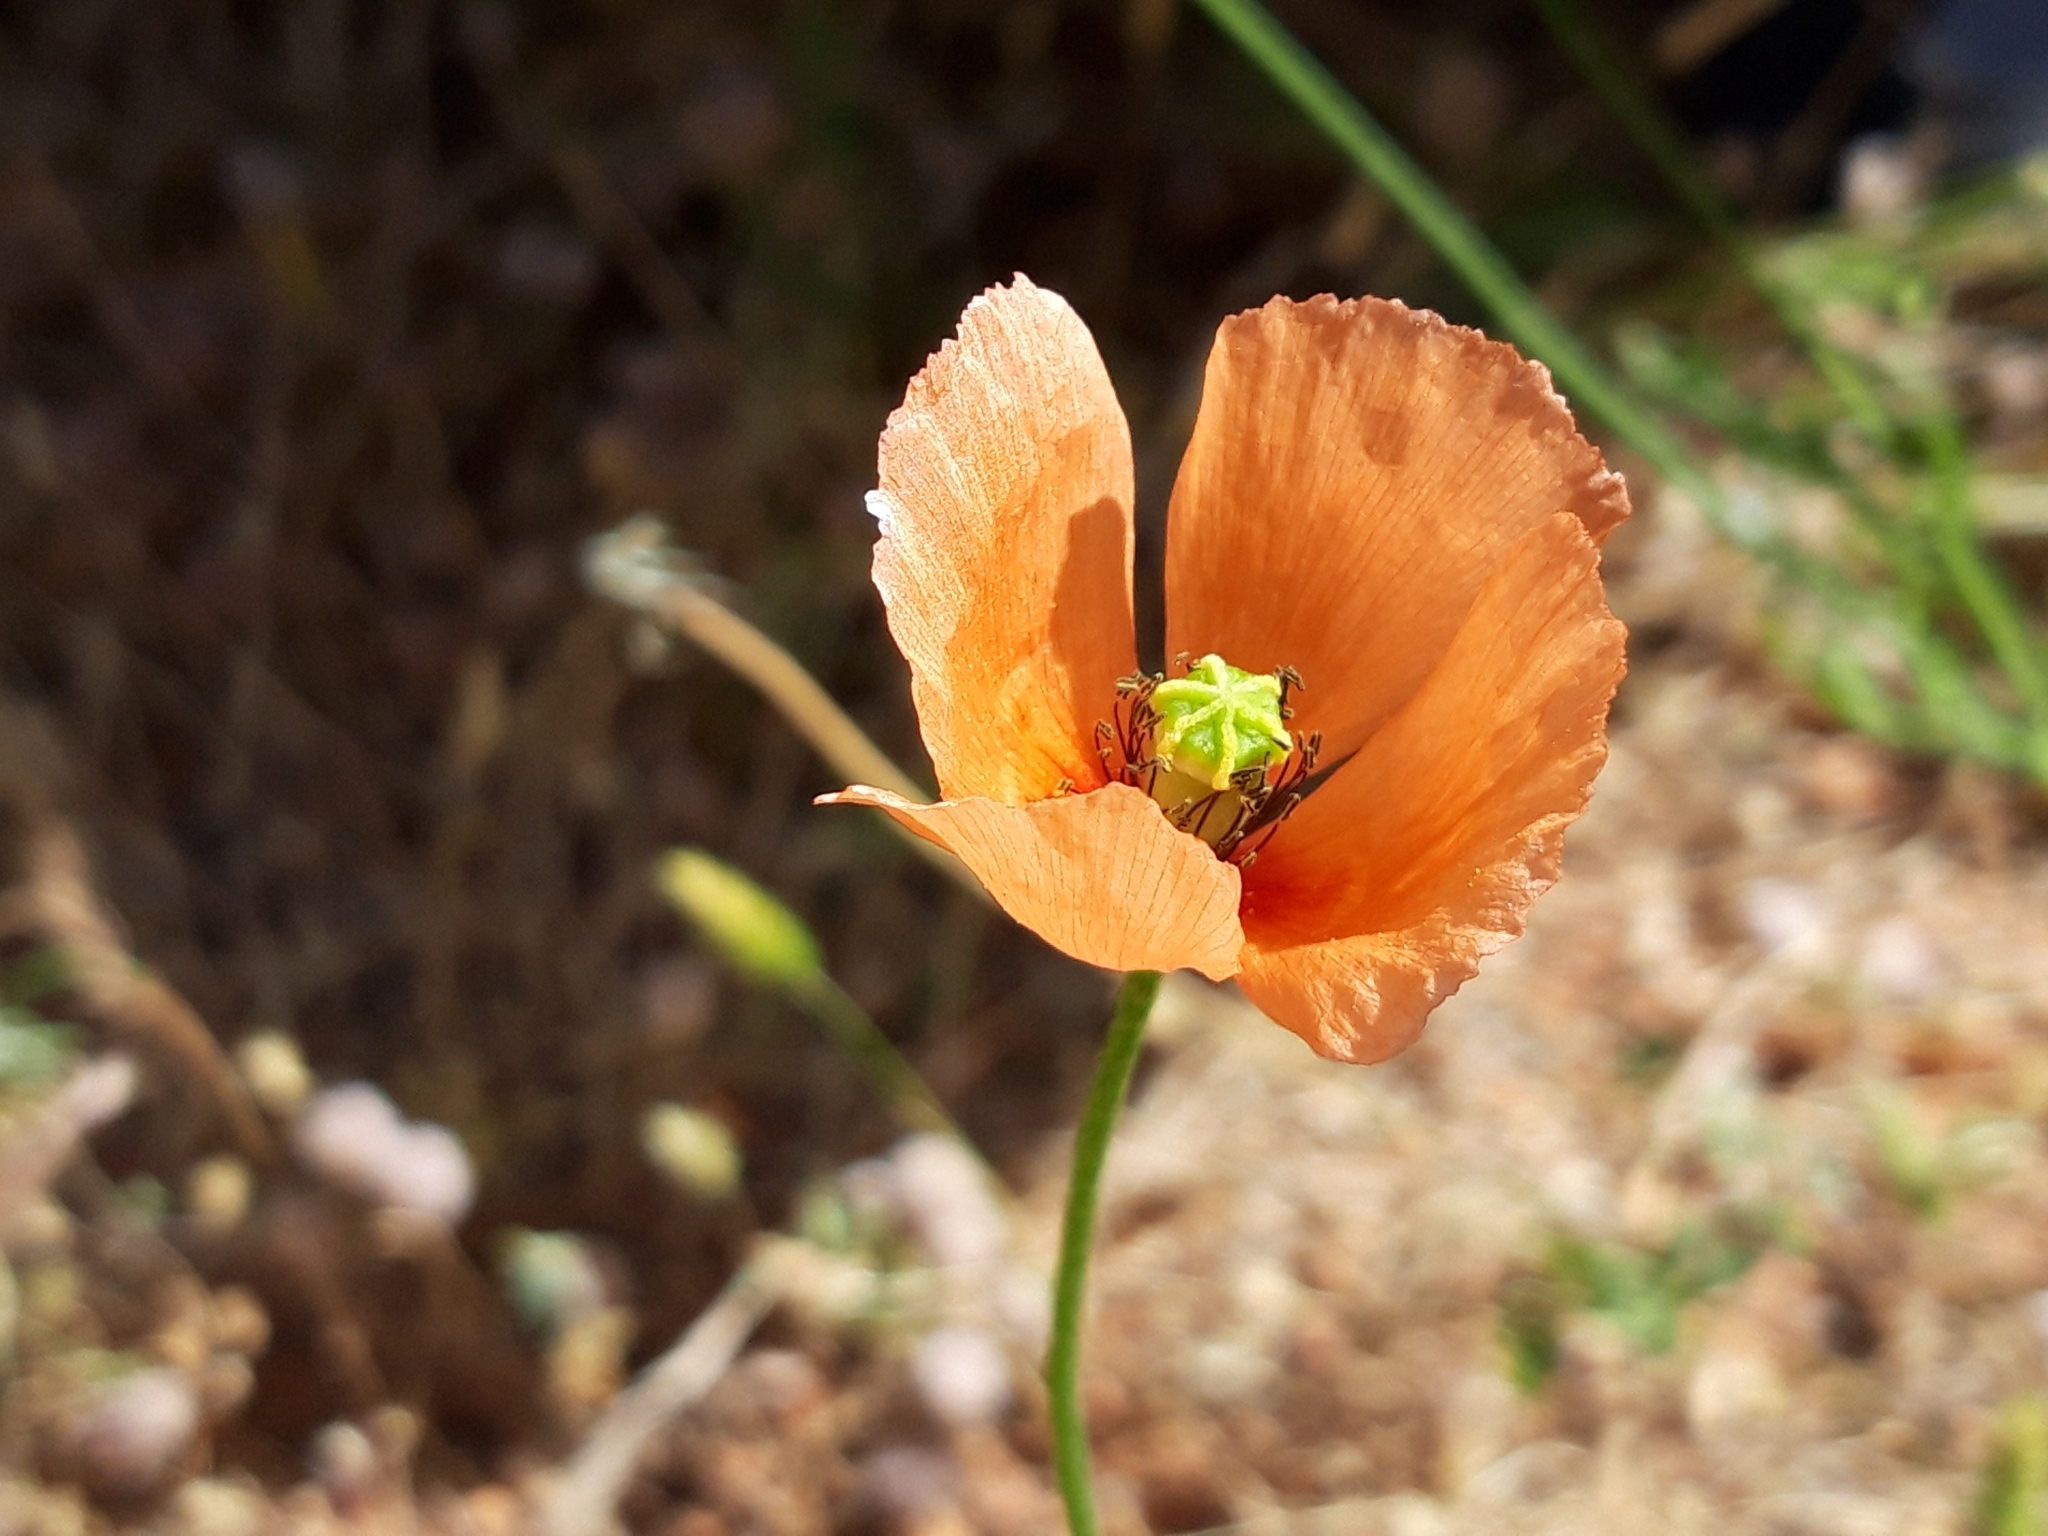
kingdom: Plantae
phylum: Tracheophyta
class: Magnoliopsida
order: Ranunculales
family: Papaveraceae
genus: Papaver
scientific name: Papaver dubium
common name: Long-headed poppy
